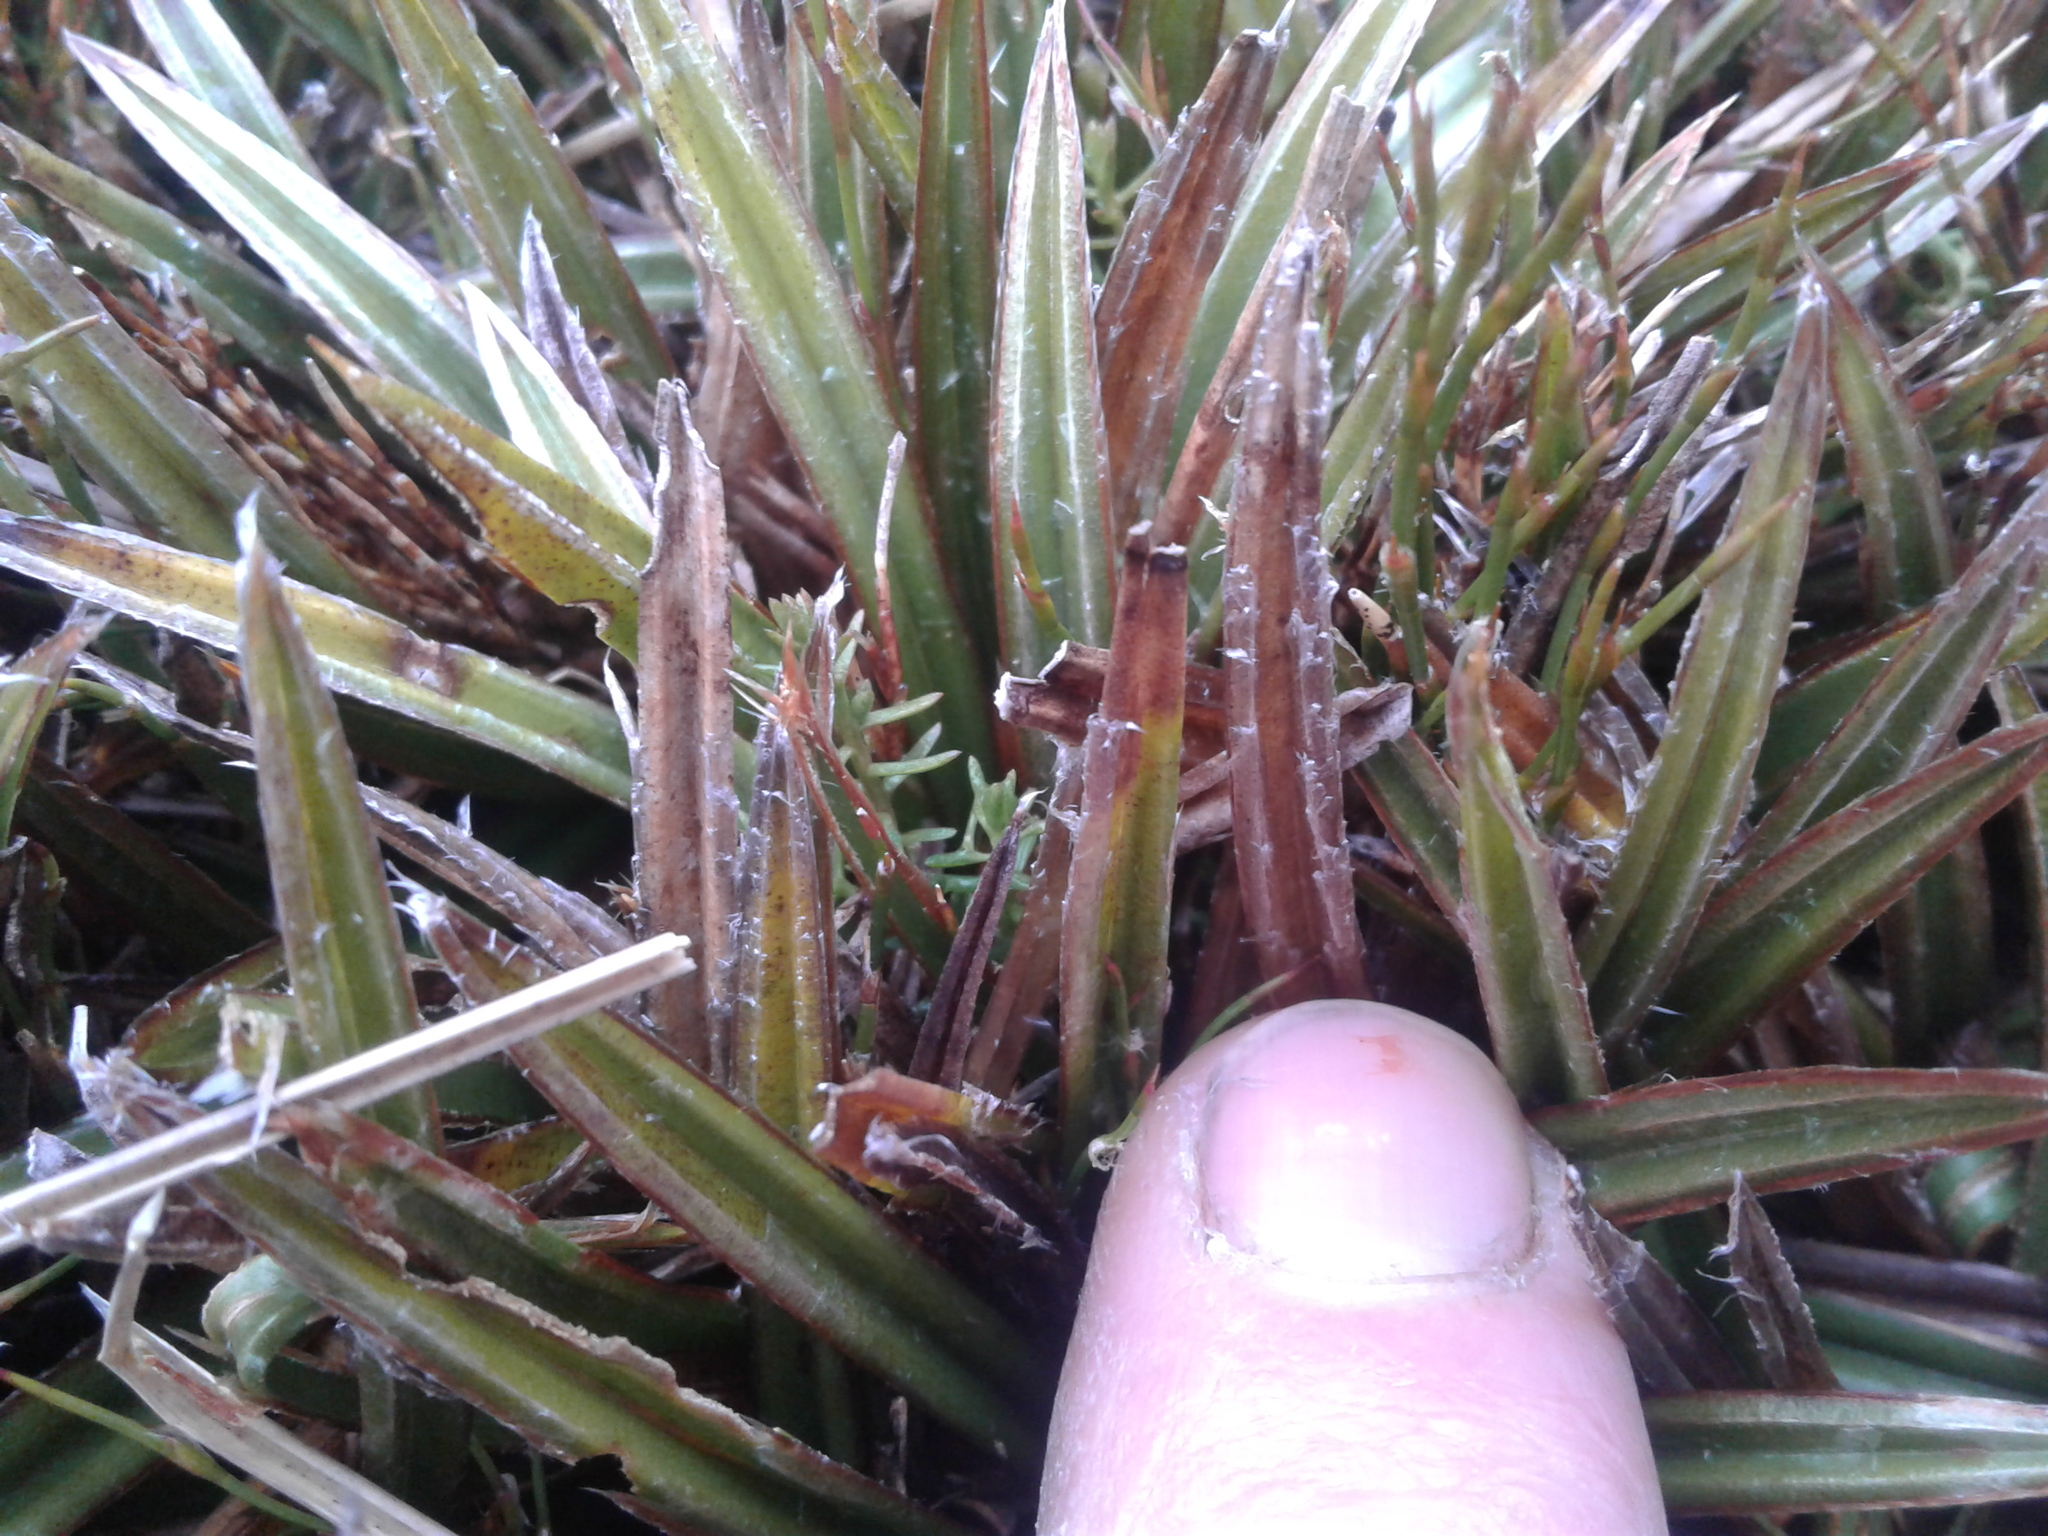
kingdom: Plantae
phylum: Tracheophyta
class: Liliopsida
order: Asparagales
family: Asteliaceae
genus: Astelia
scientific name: Astelia linearis
